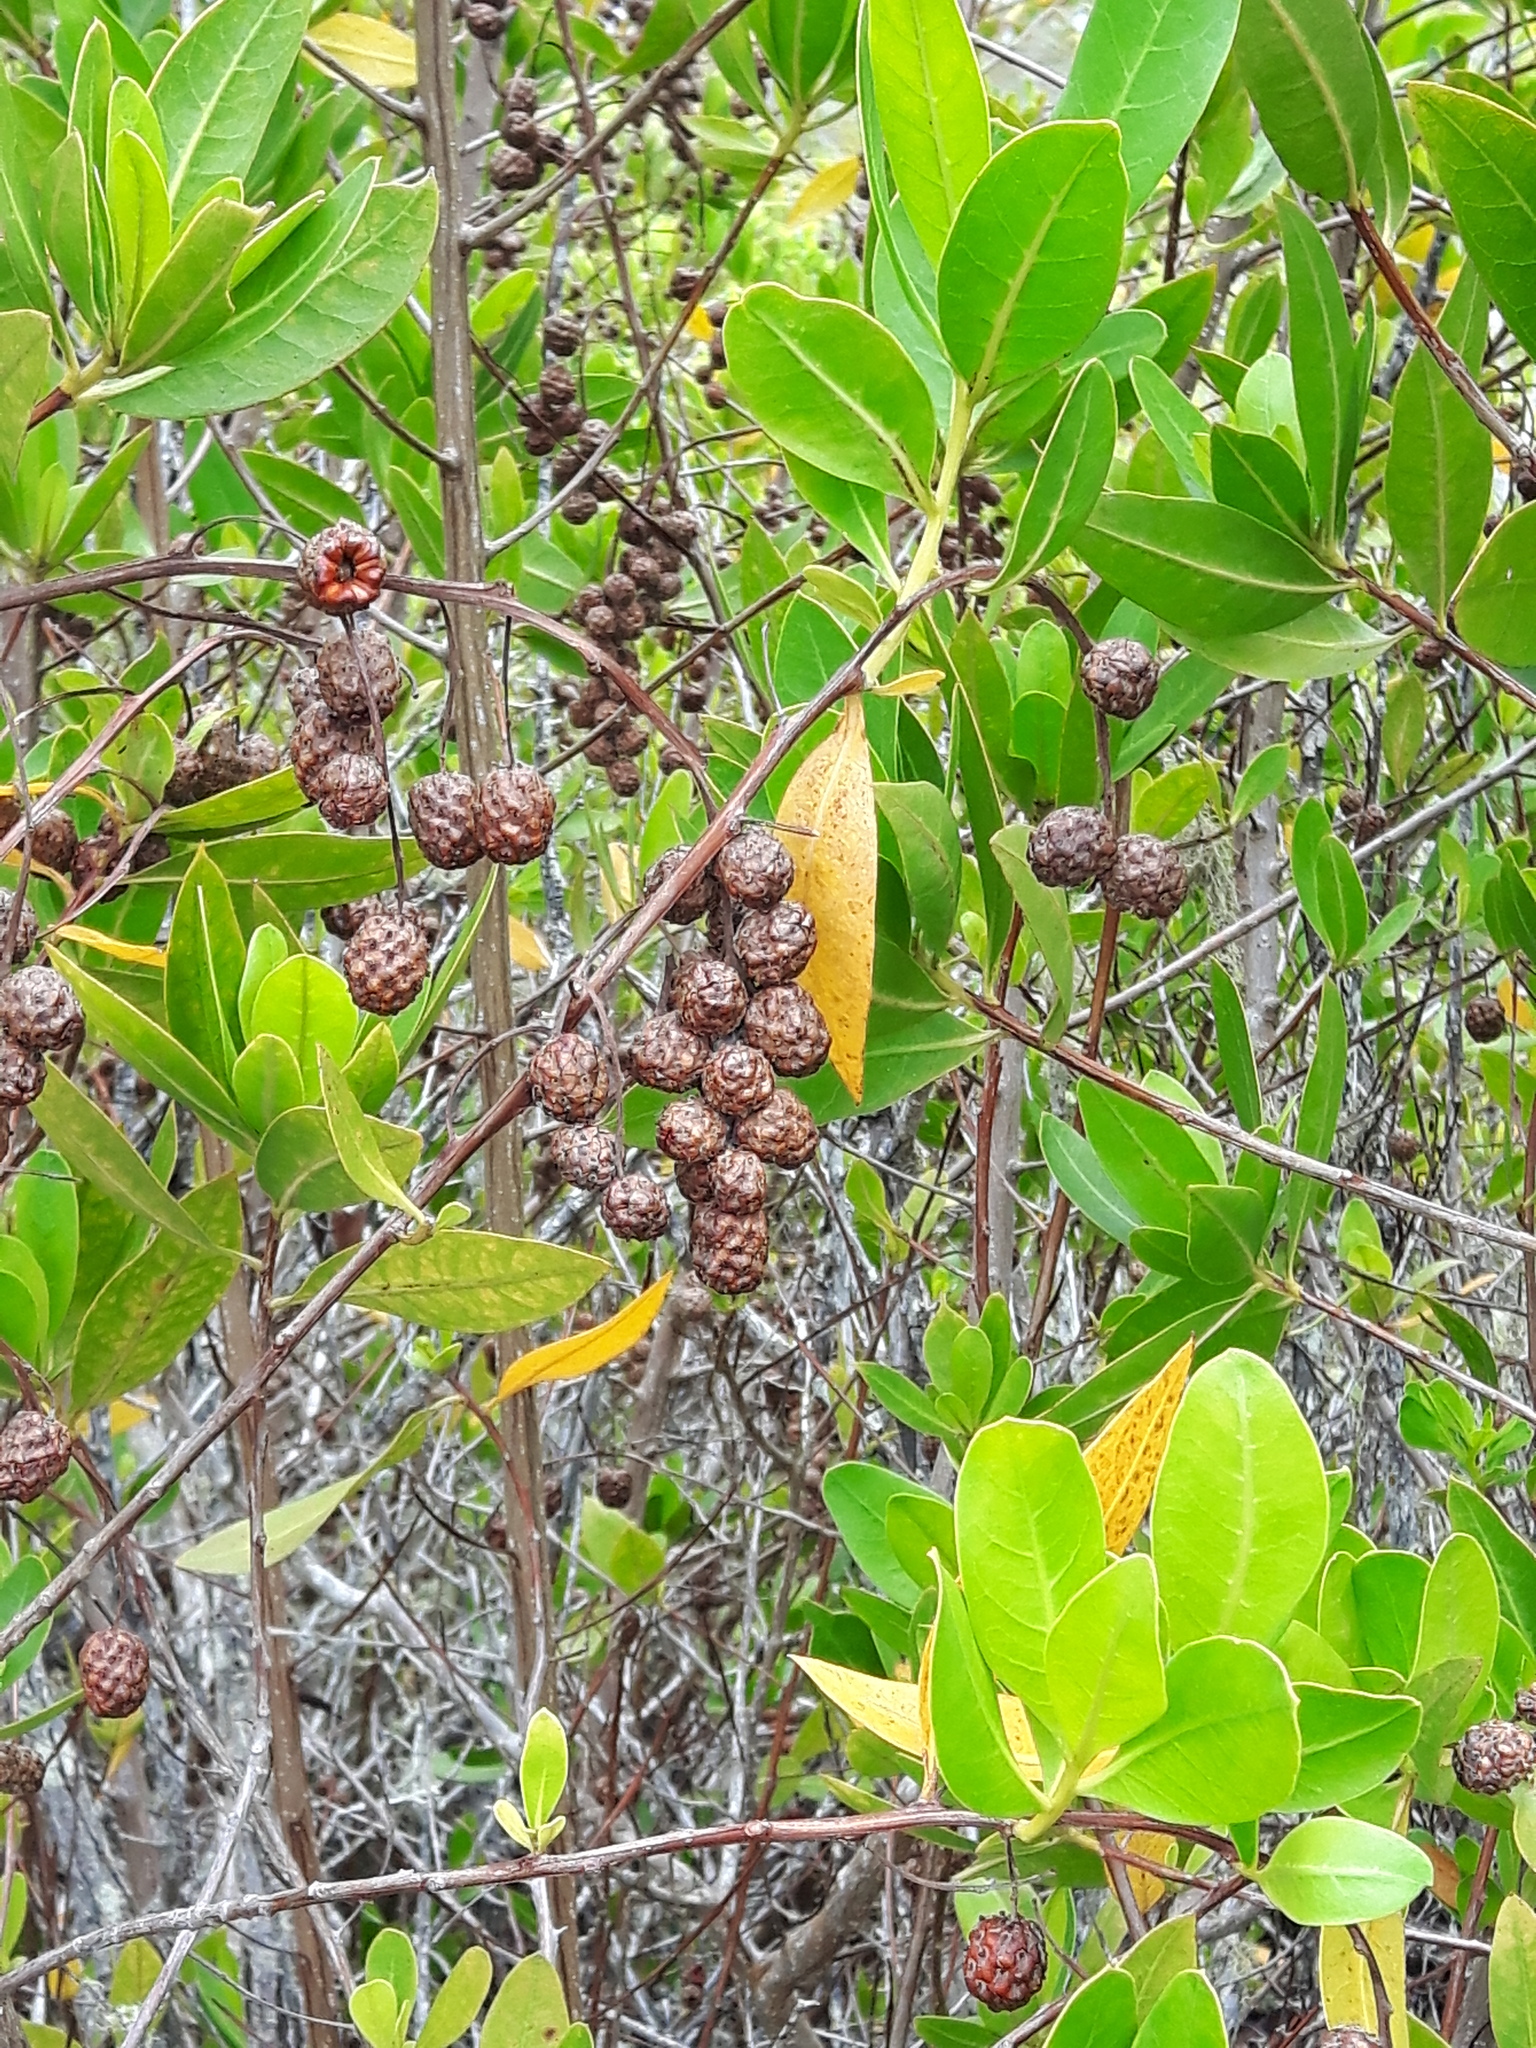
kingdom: Plantae
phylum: Tracheophyta
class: Magnoliopsida
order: Myrtales
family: Combretaceae
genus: Conocarpus
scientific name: Conocarpus erectus
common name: Button mangrove
